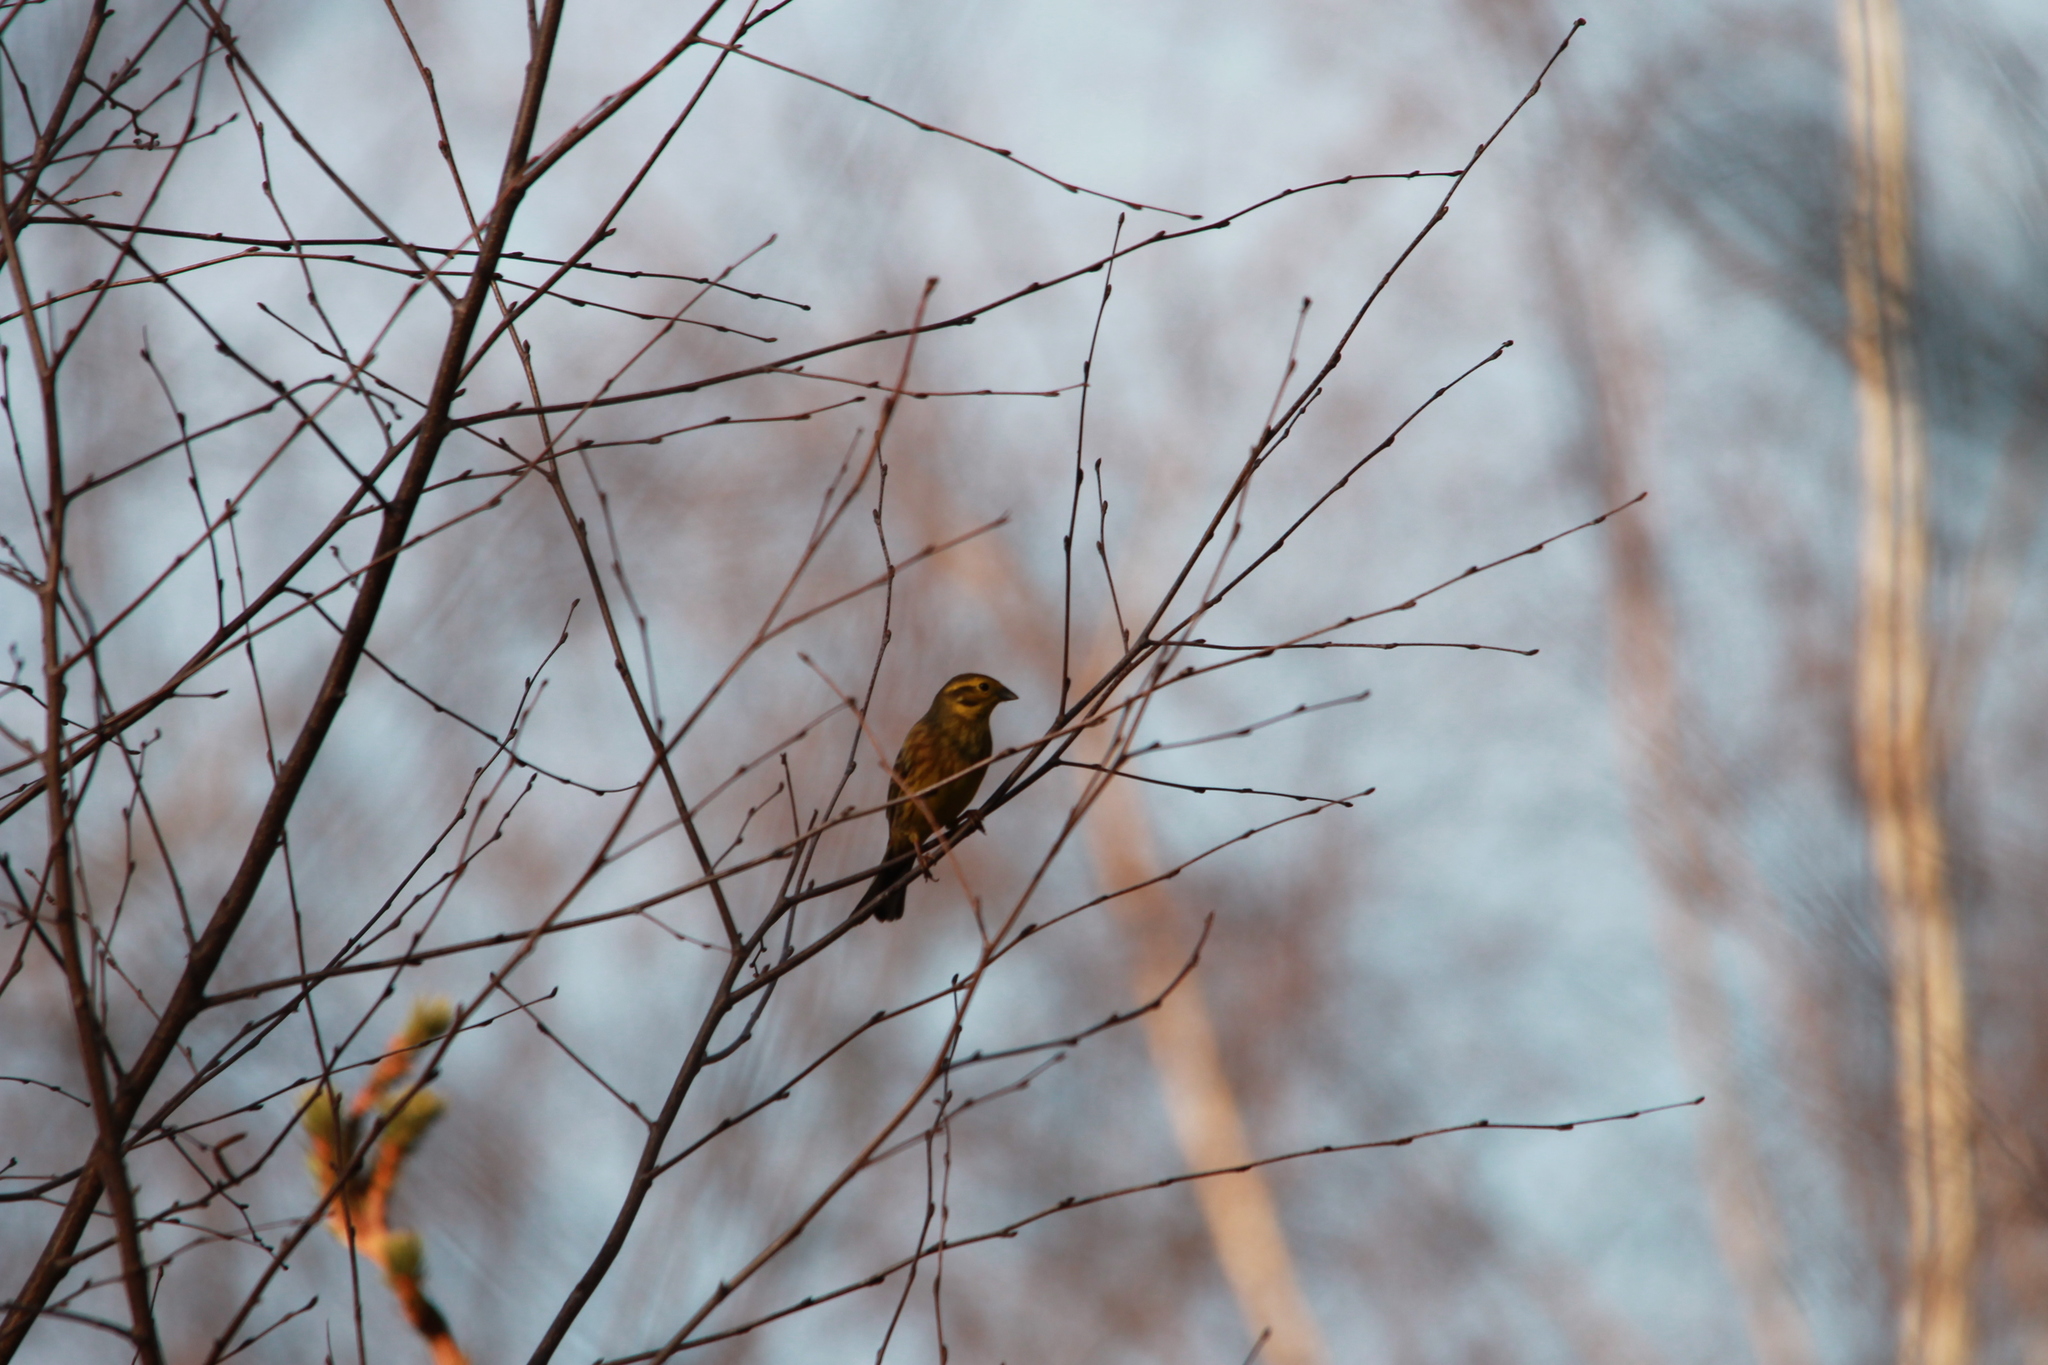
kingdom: Animalia
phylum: Chordata
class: Aves
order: Passeriformes
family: Emberizidae
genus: Emberiza
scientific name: Emberiza citrinella
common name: Yellowhammer
